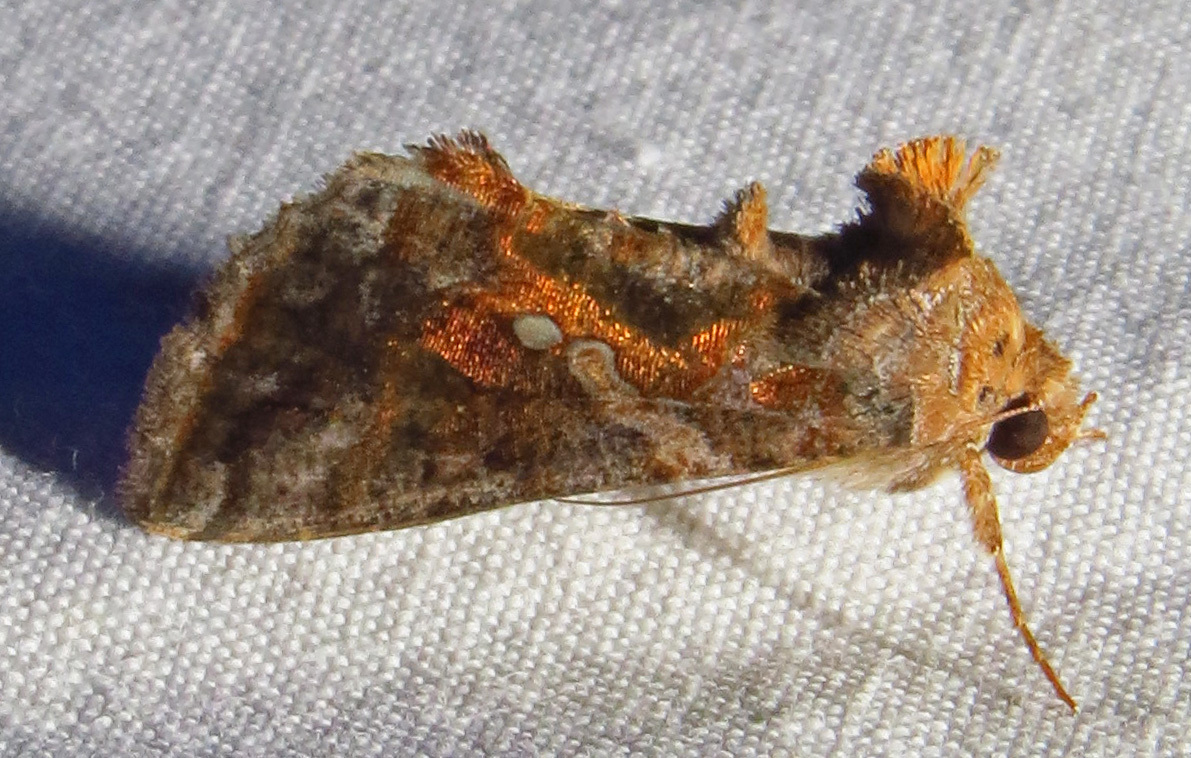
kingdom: Animalia
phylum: Arthropoda
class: Insecta
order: Lepidoptera
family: Noctuidae
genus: Chrysodeixis
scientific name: Chrysodeixis includens
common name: Cutworm moth
